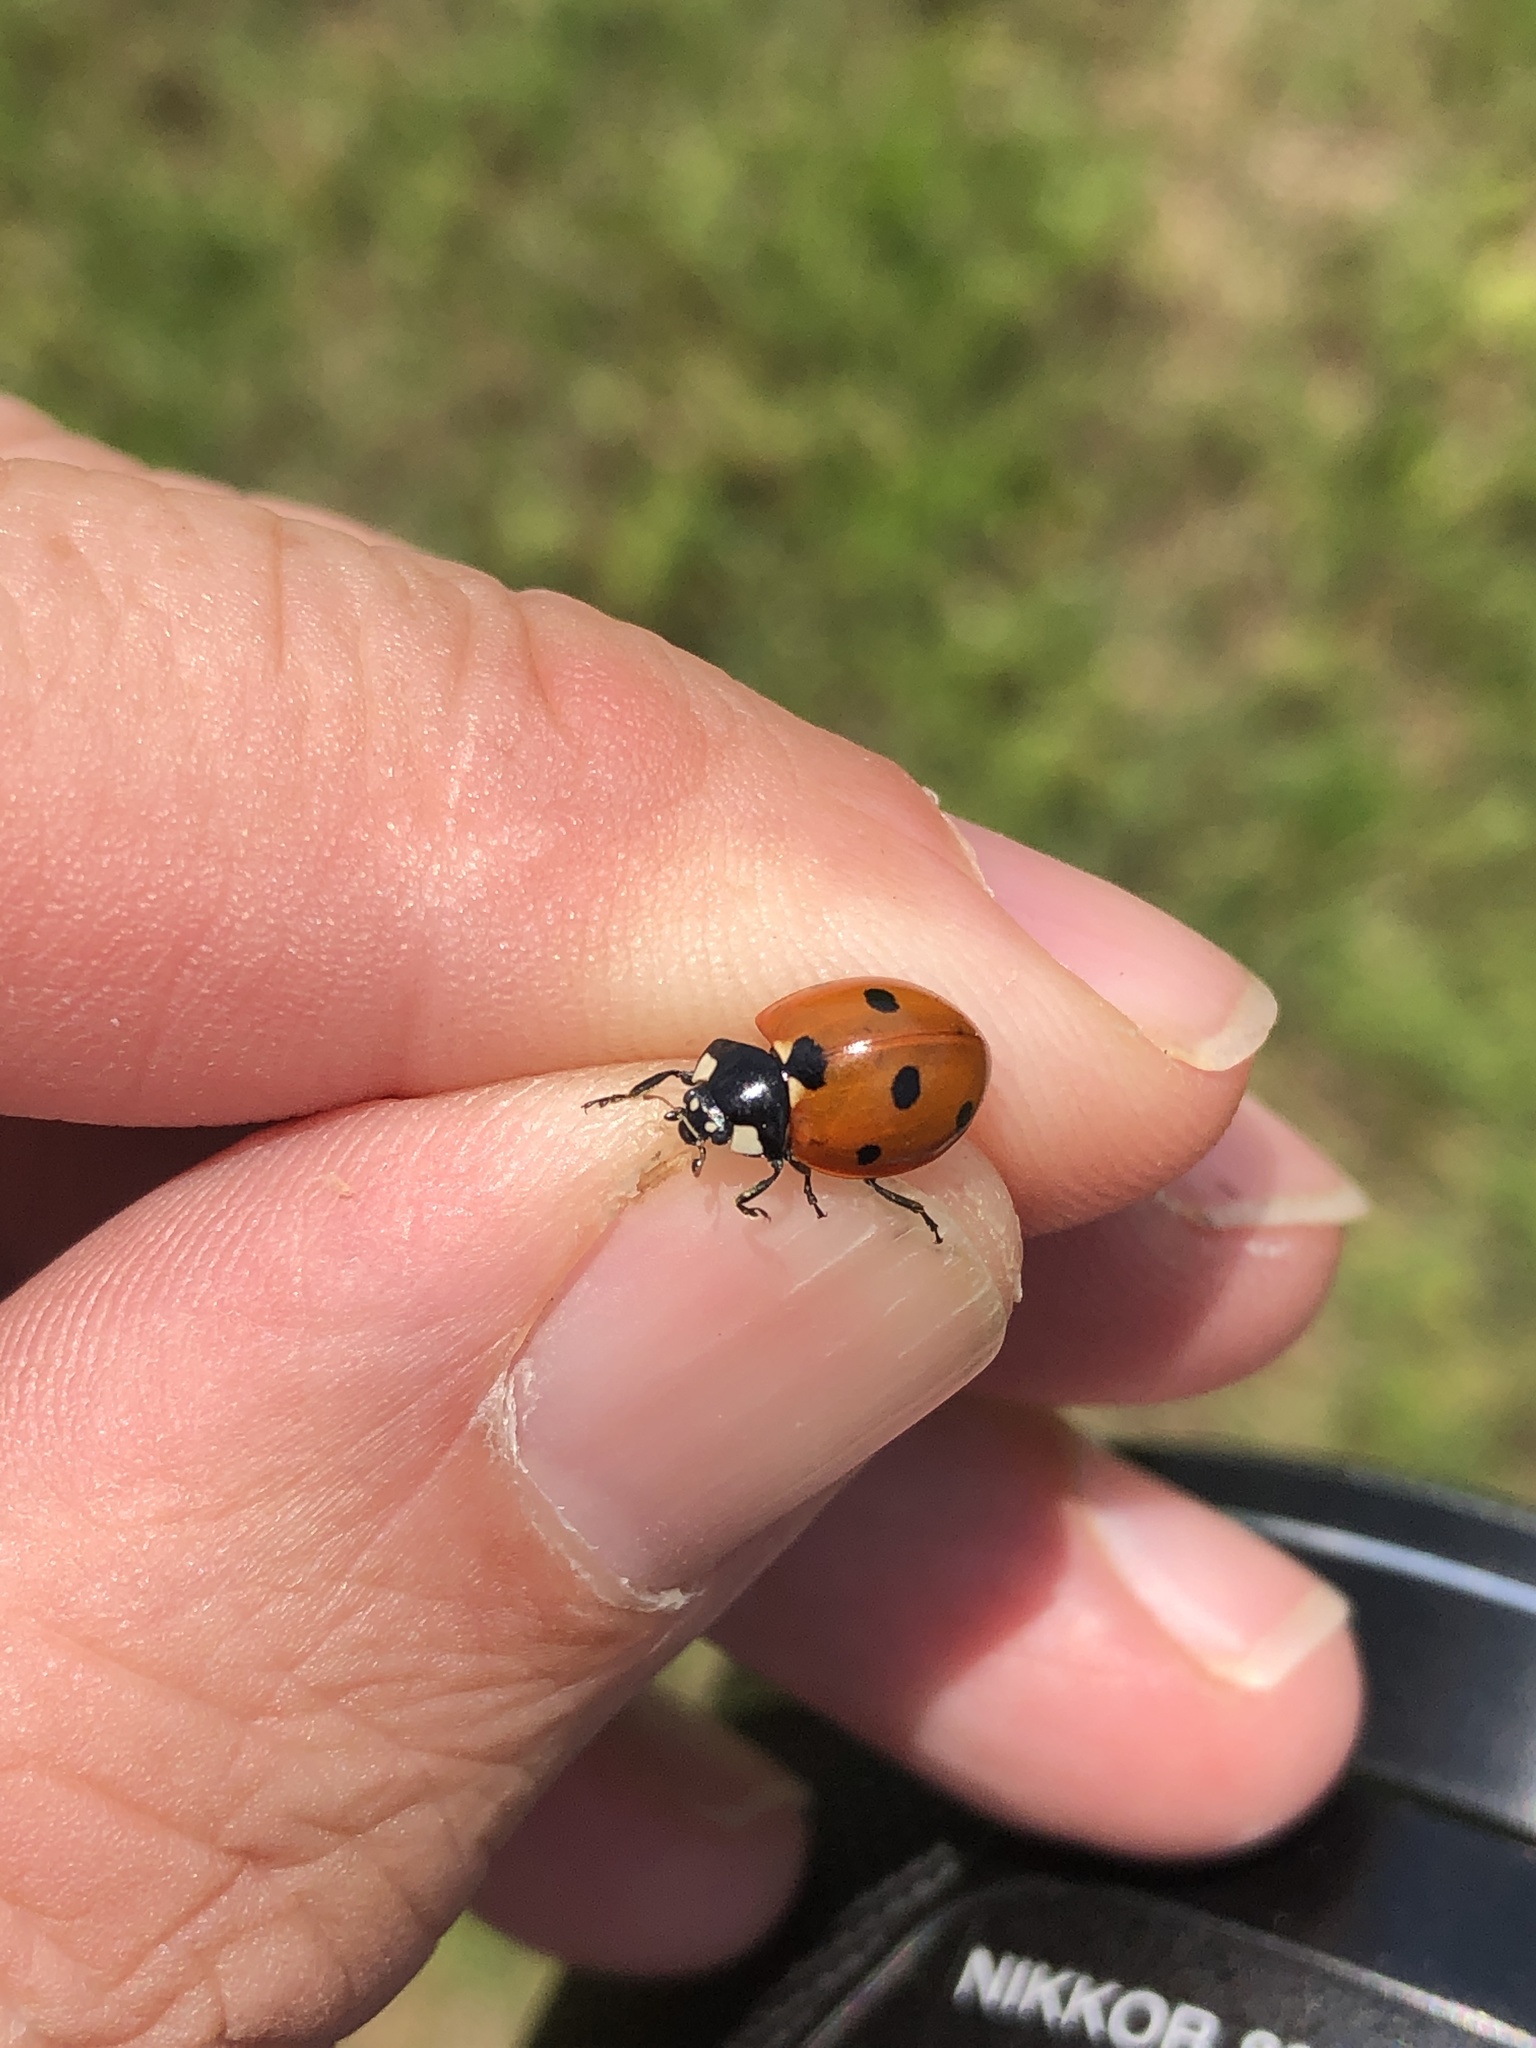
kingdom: Animalia
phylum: Arthropoda
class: Insecta
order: Coleoptera
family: Coccinellidae
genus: Coccinella
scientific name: Coccinella septempunctata
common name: Sevenspotted lady beetle
